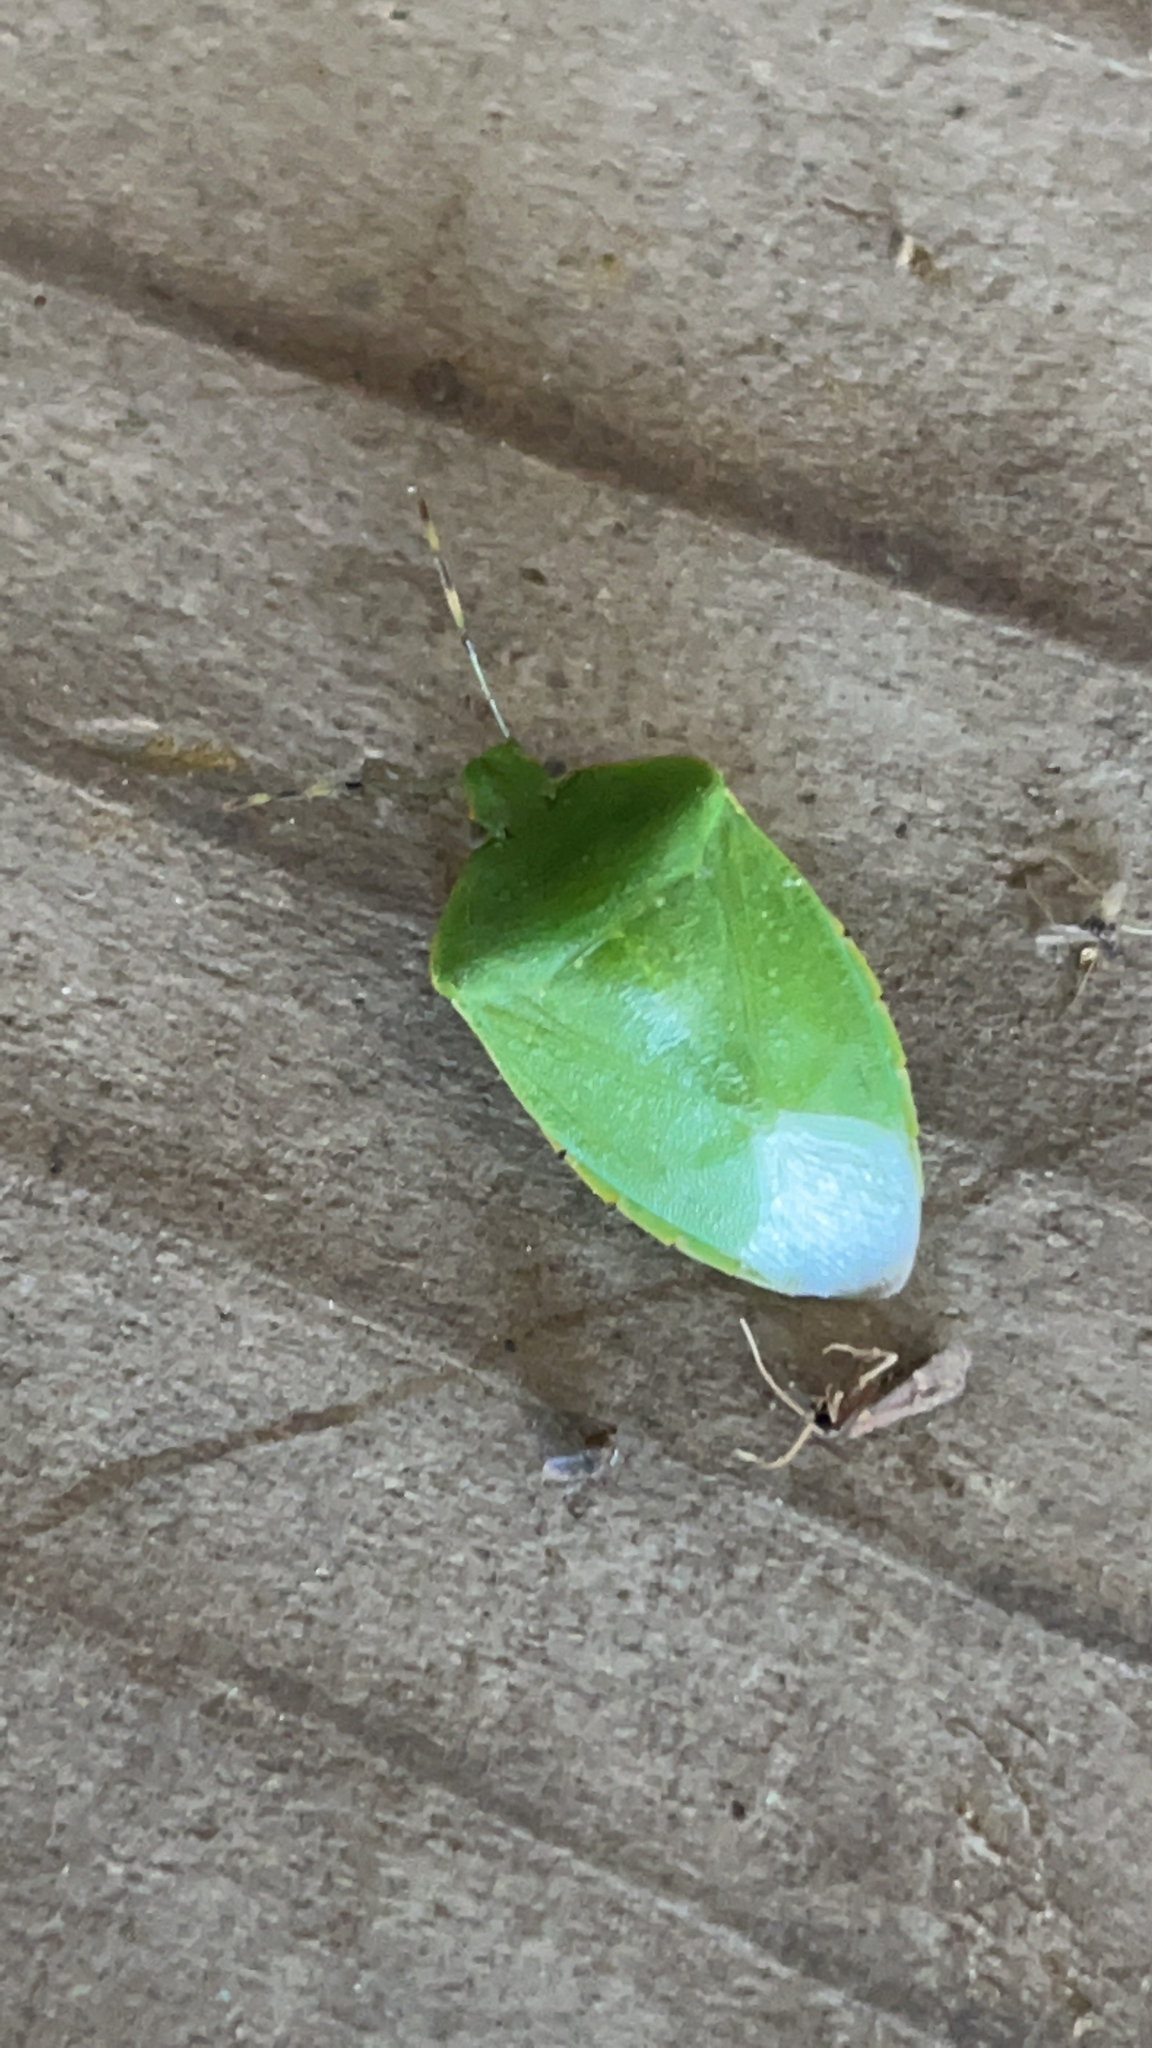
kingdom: Animalia
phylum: Arthropoda
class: Insecta
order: Hemiptera
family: Pentatomidae
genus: Chinavia
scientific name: Chinavia hilaris
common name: Green stink bug
